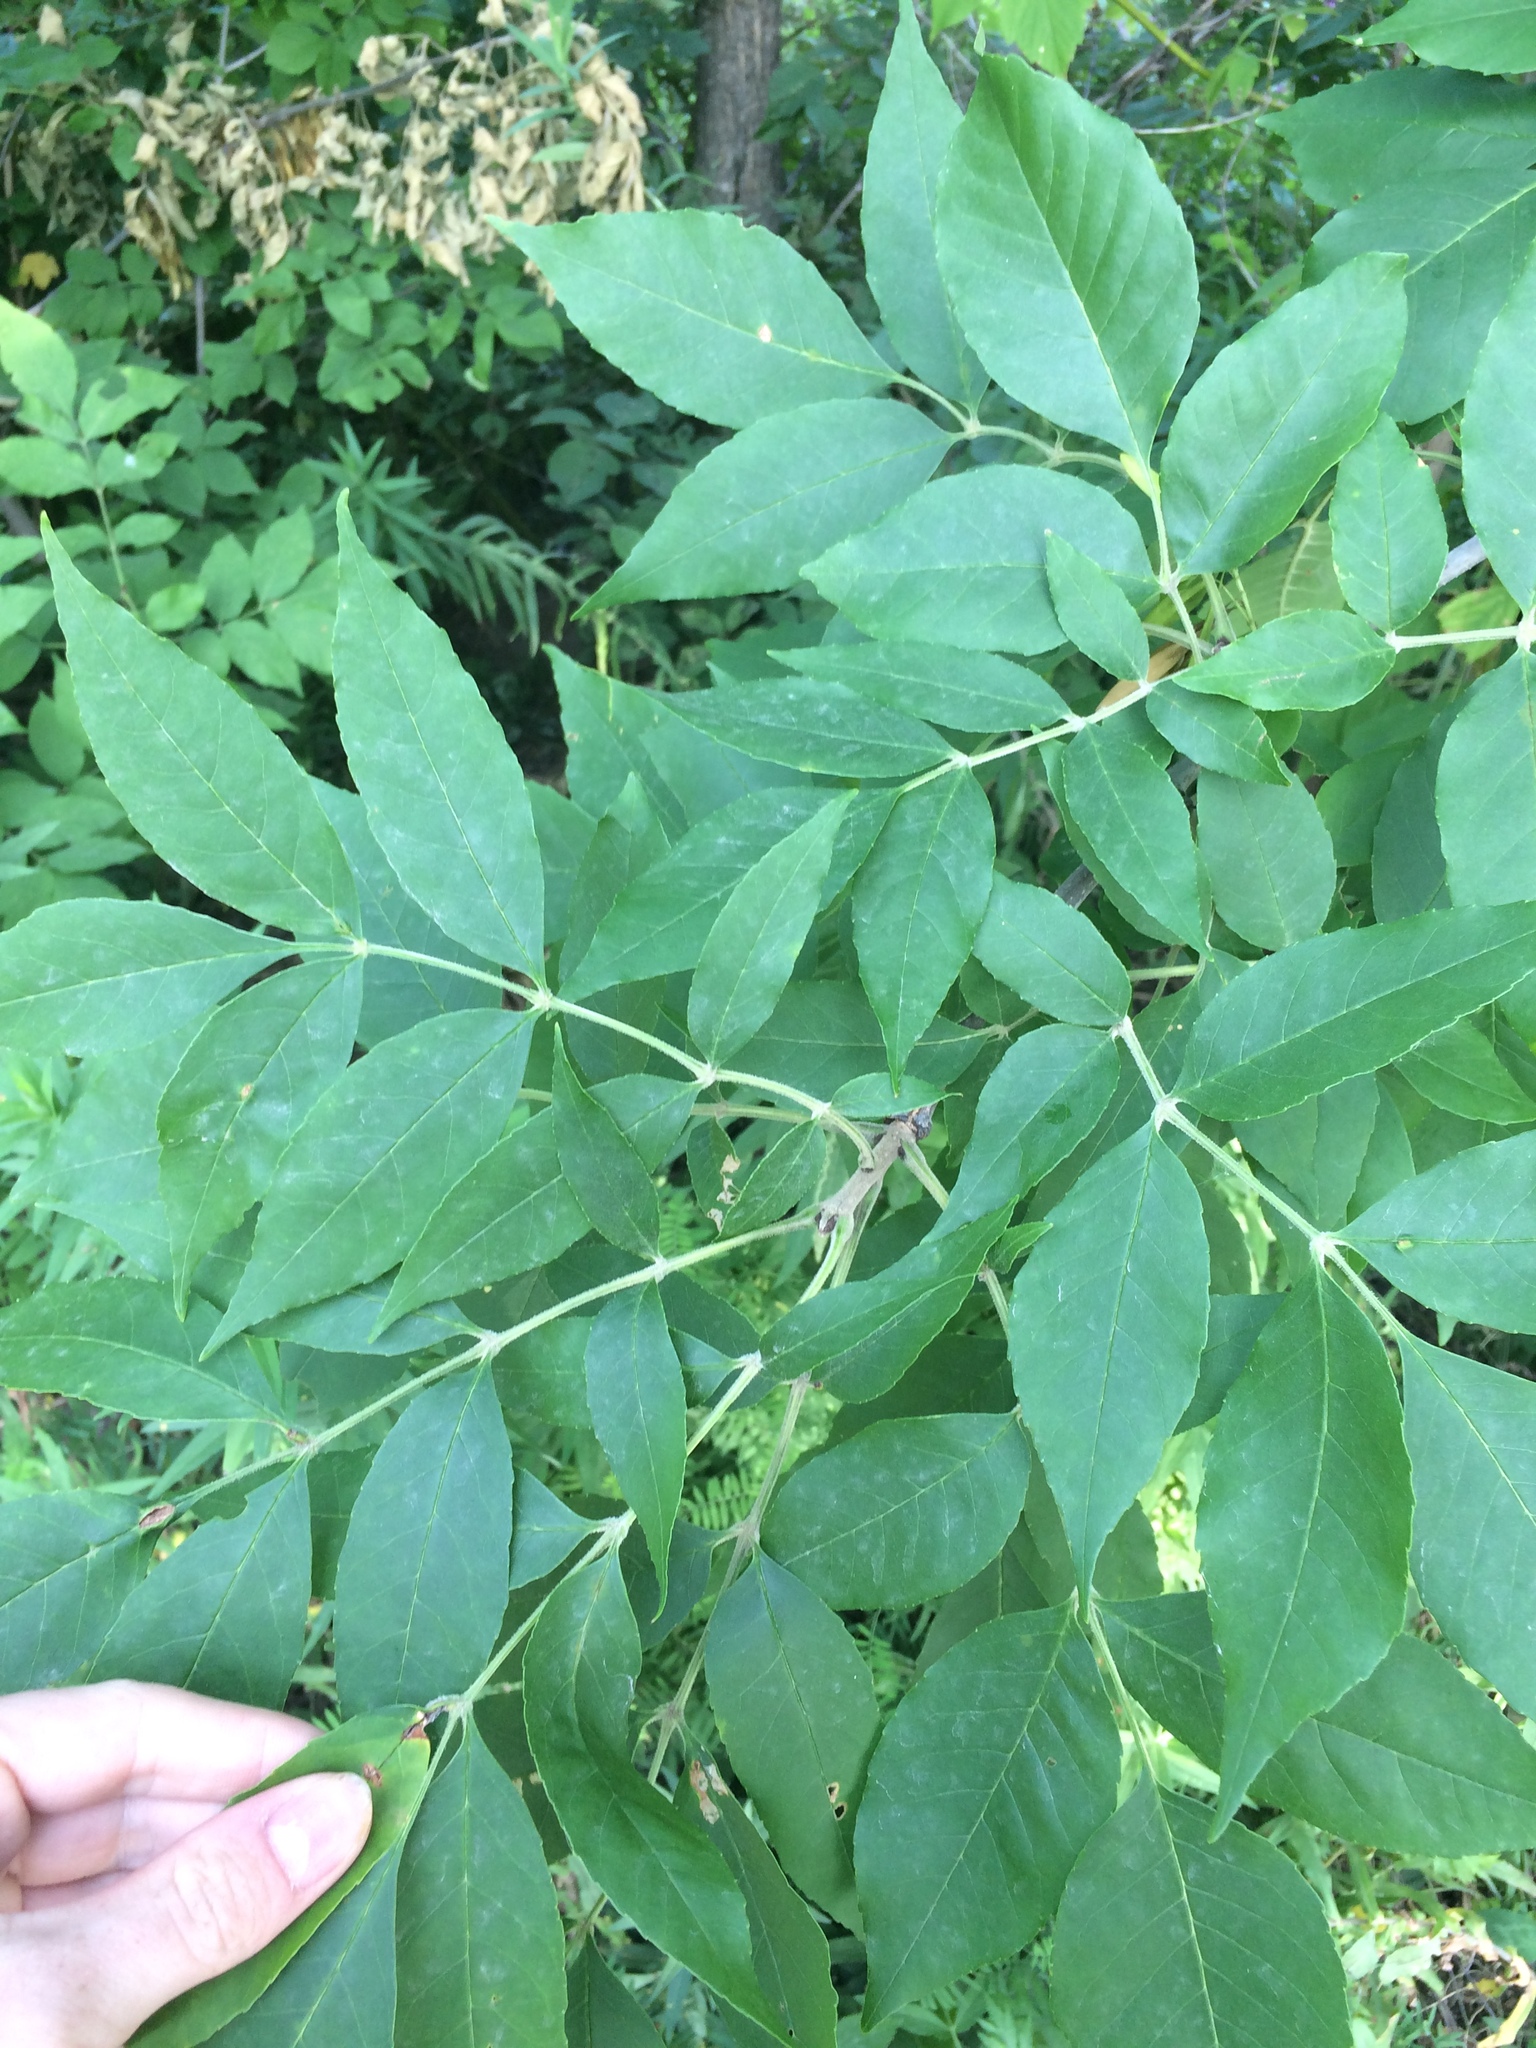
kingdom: Plantae
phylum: Tracheophyta
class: Magnoliopsida
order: Lamiales
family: Oleaceae
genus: Fraxinus
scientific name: Fraxinus pennsylvanica
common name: Green ash
